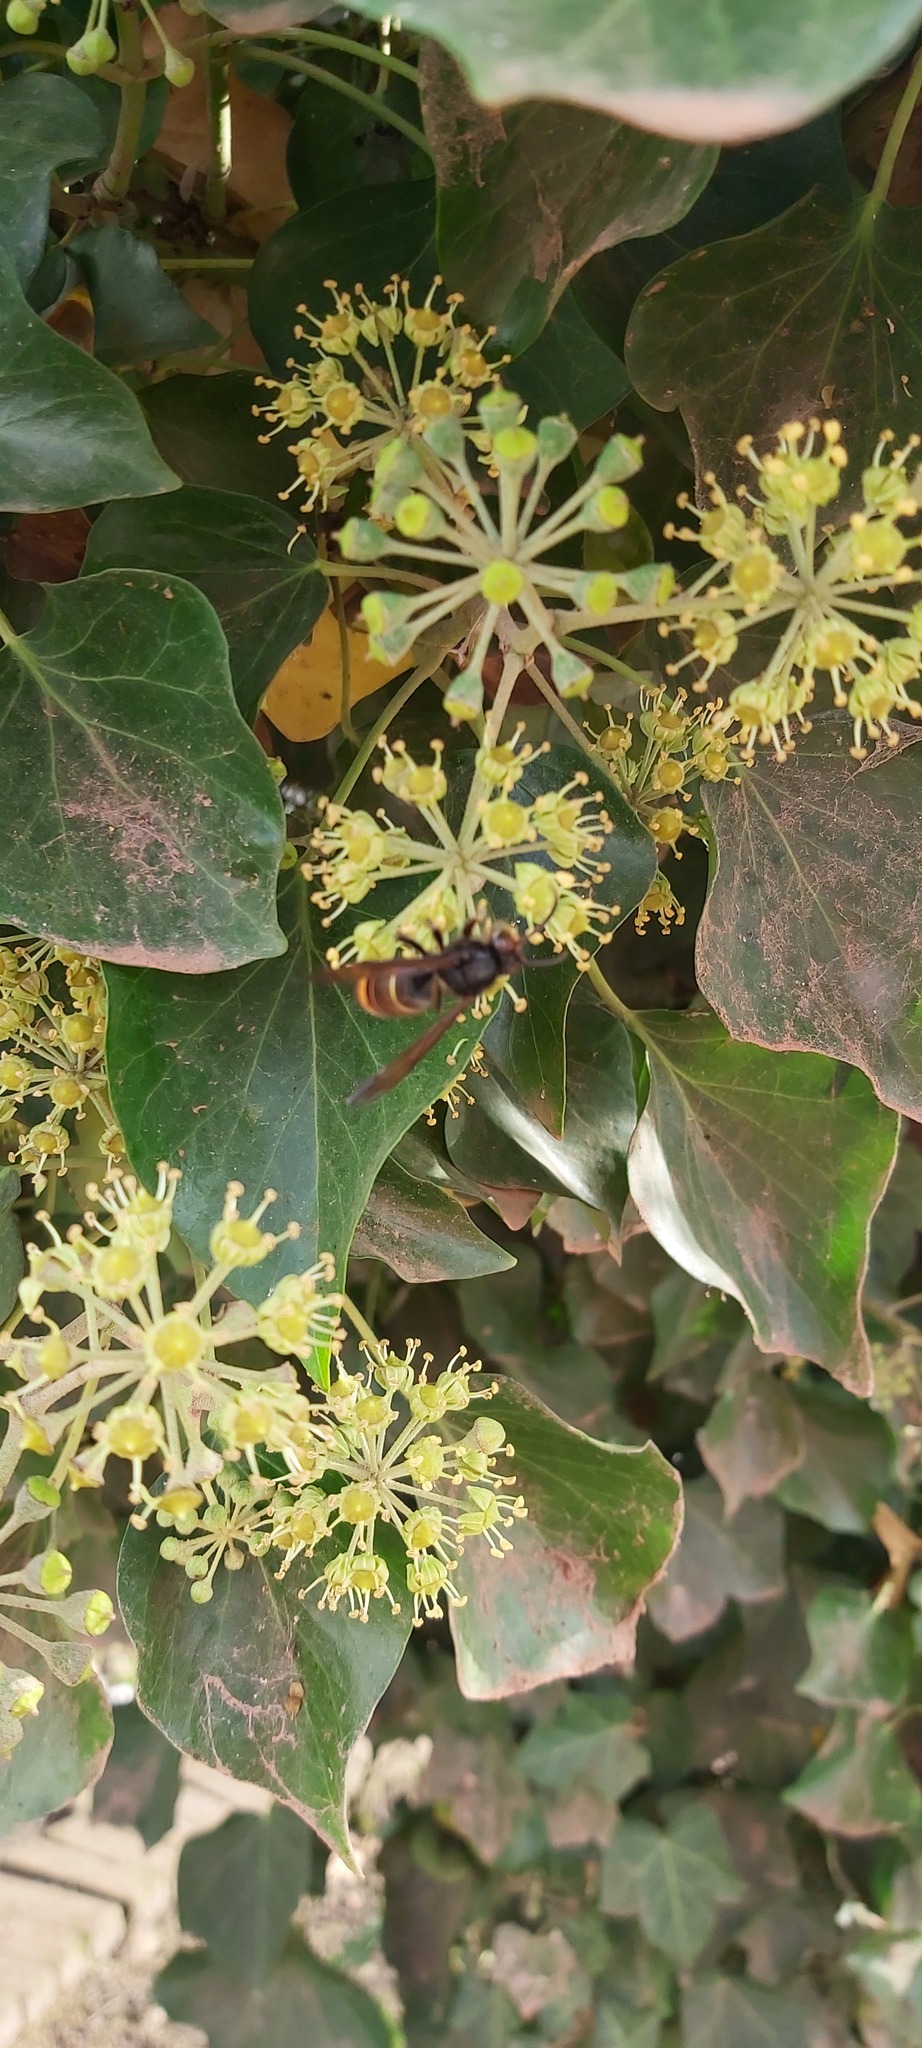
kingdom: Animalia
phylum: Arthropoda
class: Insecta
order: Hymenoptera
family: Vespidae
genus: Vespa
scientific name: Vespa velutina
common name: Asian hornet
